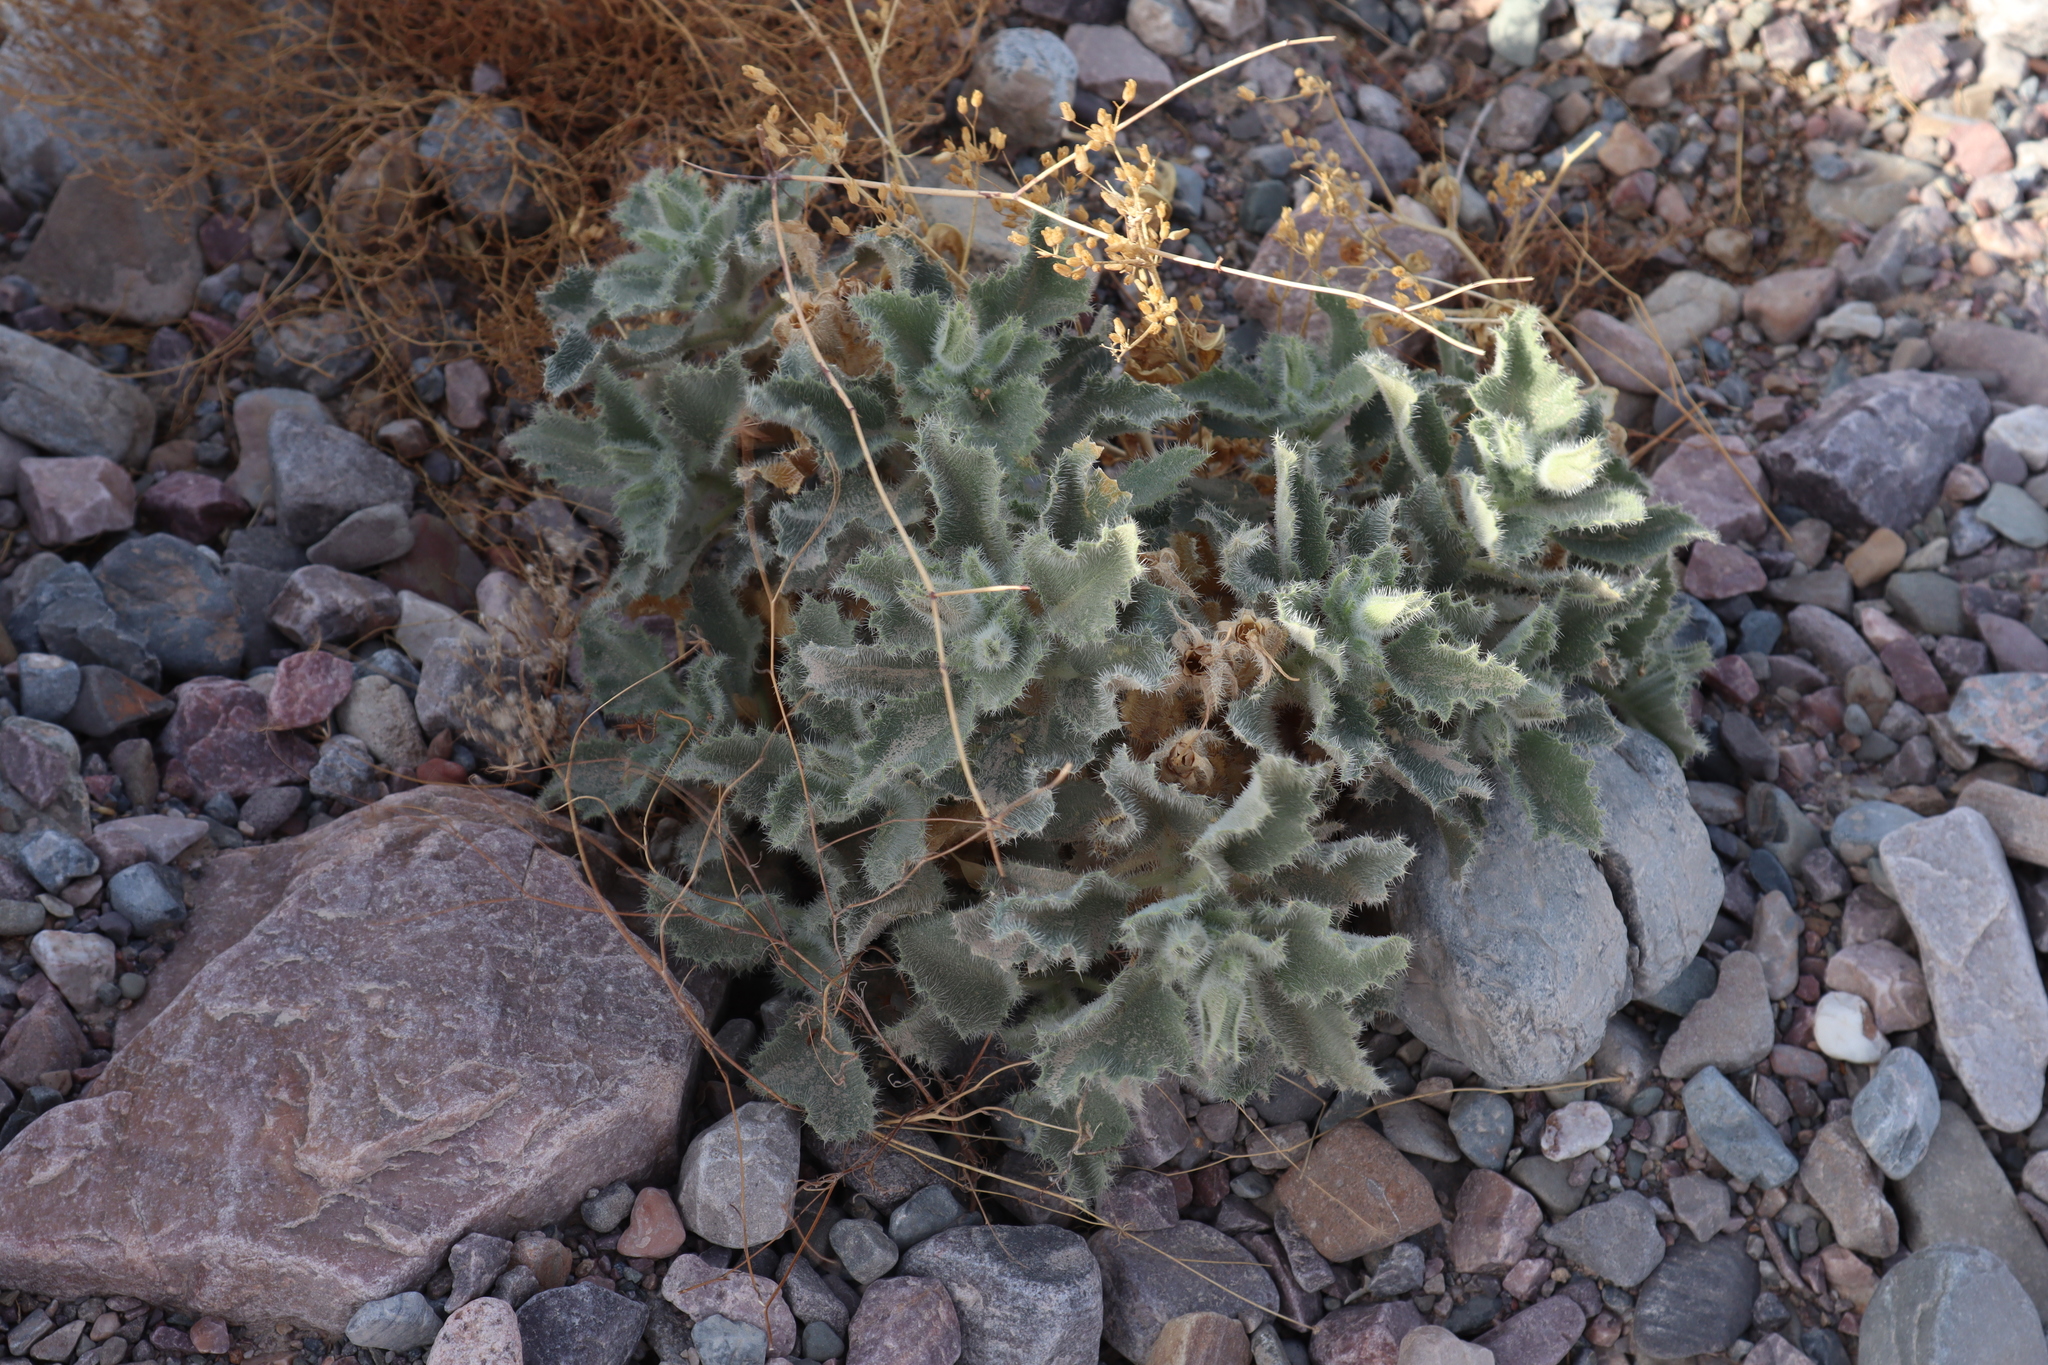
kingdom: Plantae
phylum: Tracheophyta
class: Magnoliopsida
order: Cornales
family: Loasaceae
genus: Eucnide
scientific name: Eucnide urens
